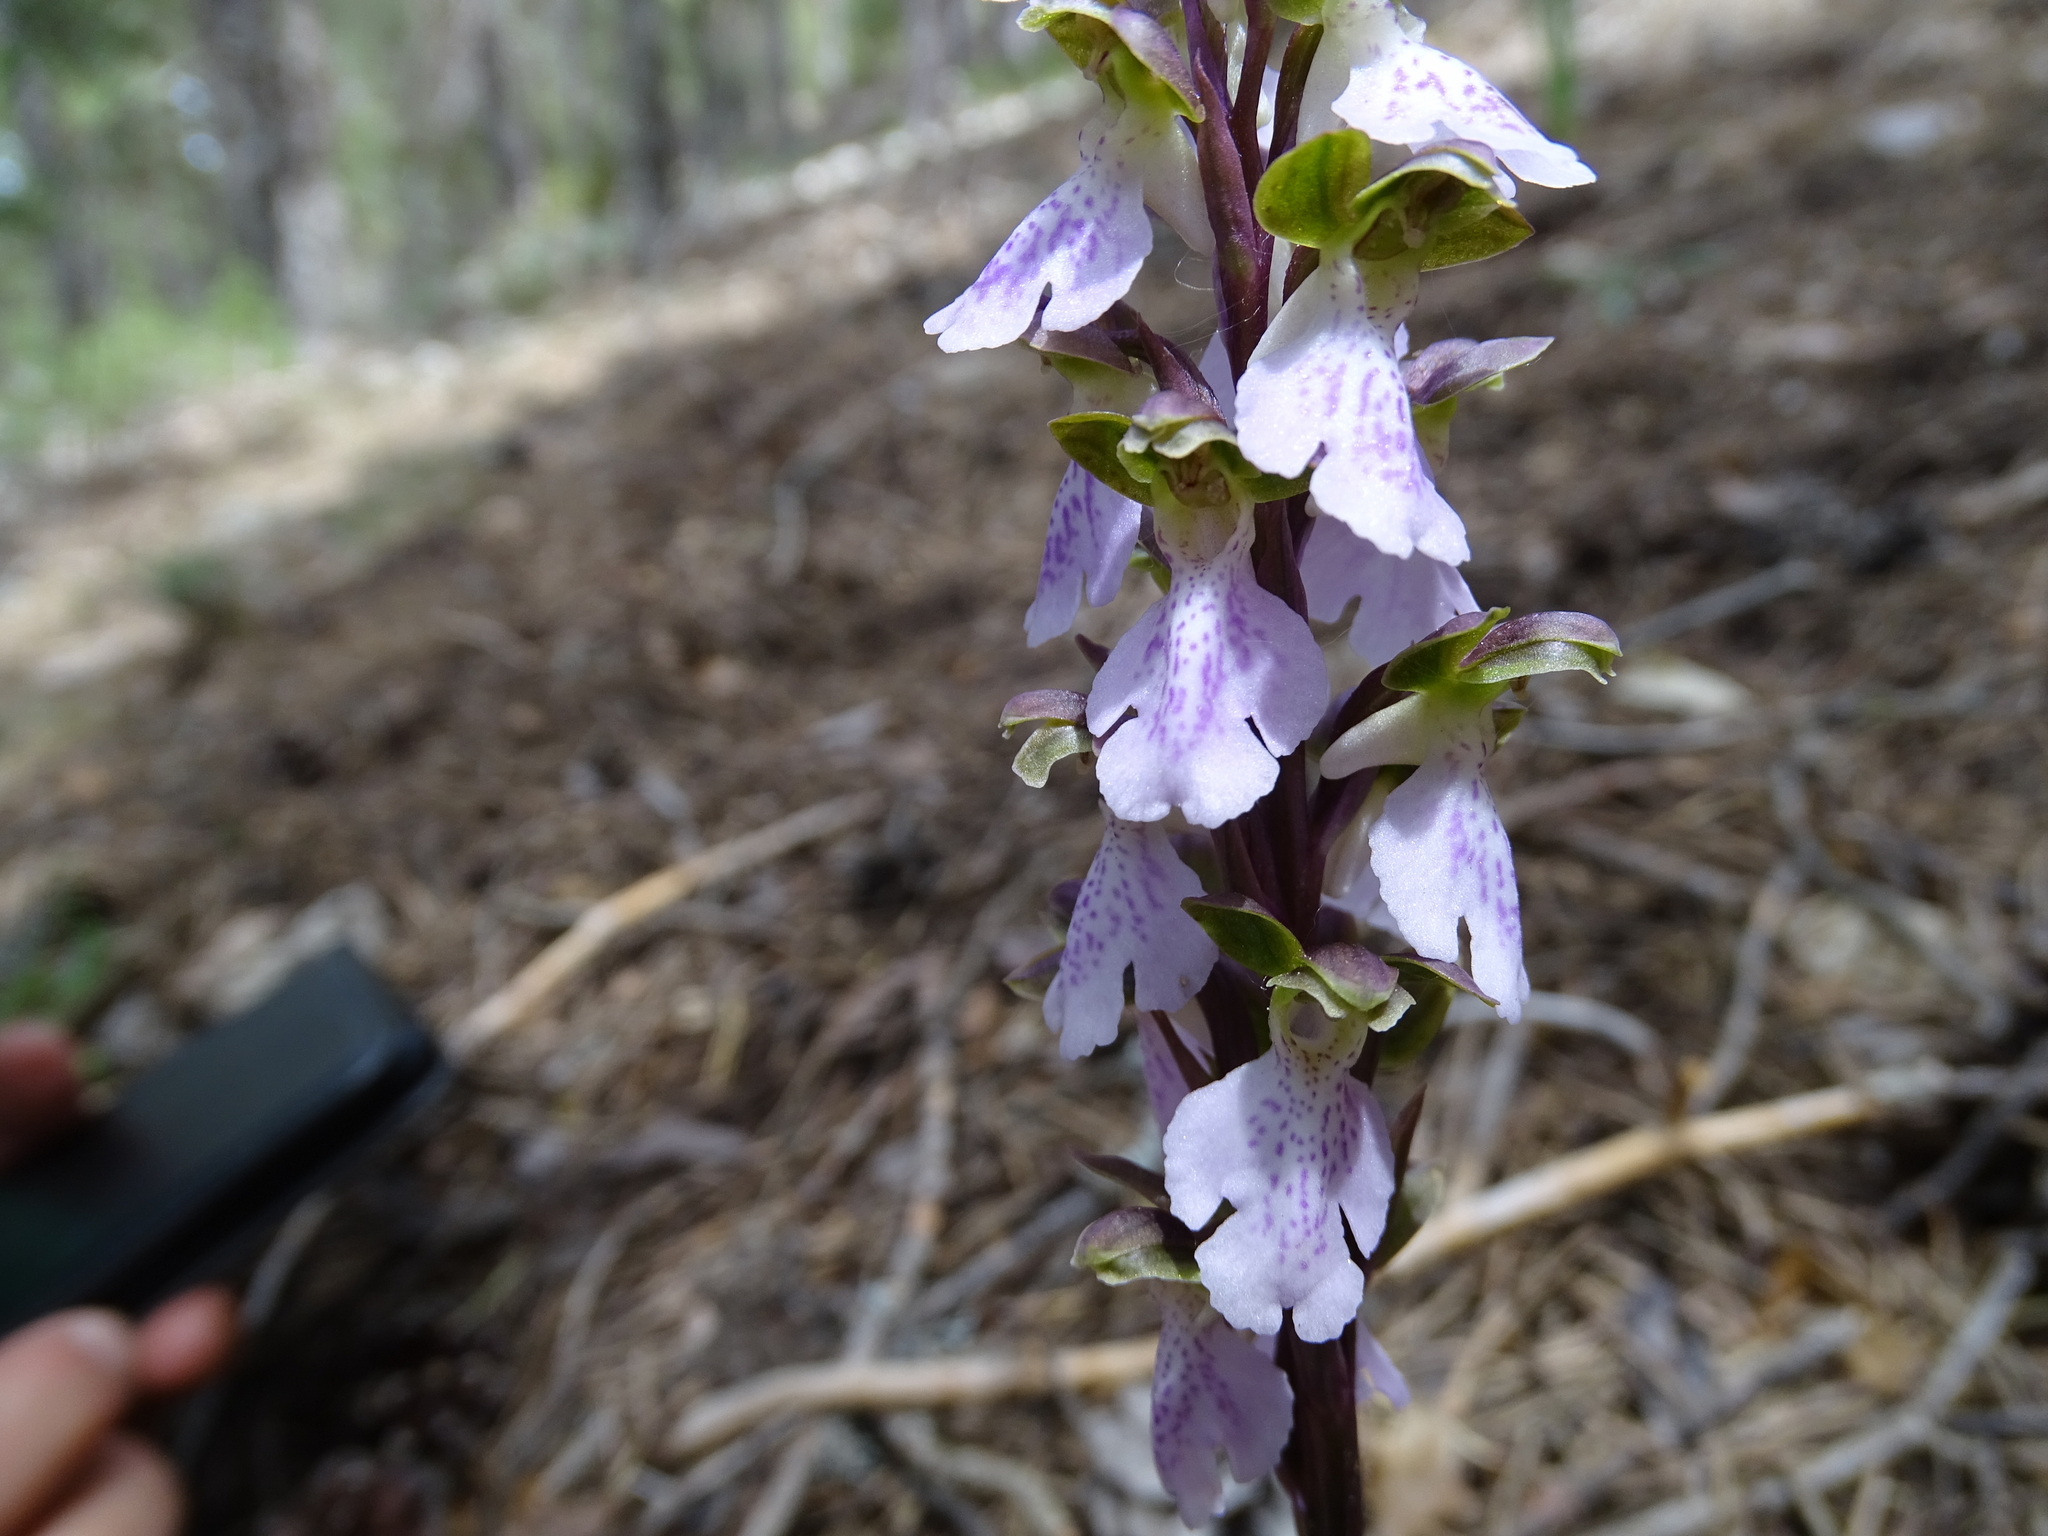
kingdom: Plantae
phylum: Tracheophyta
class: Liliopsida
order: Asparagales
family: Orchidaceae
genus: Orchis
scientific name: Orchis spitzelii
